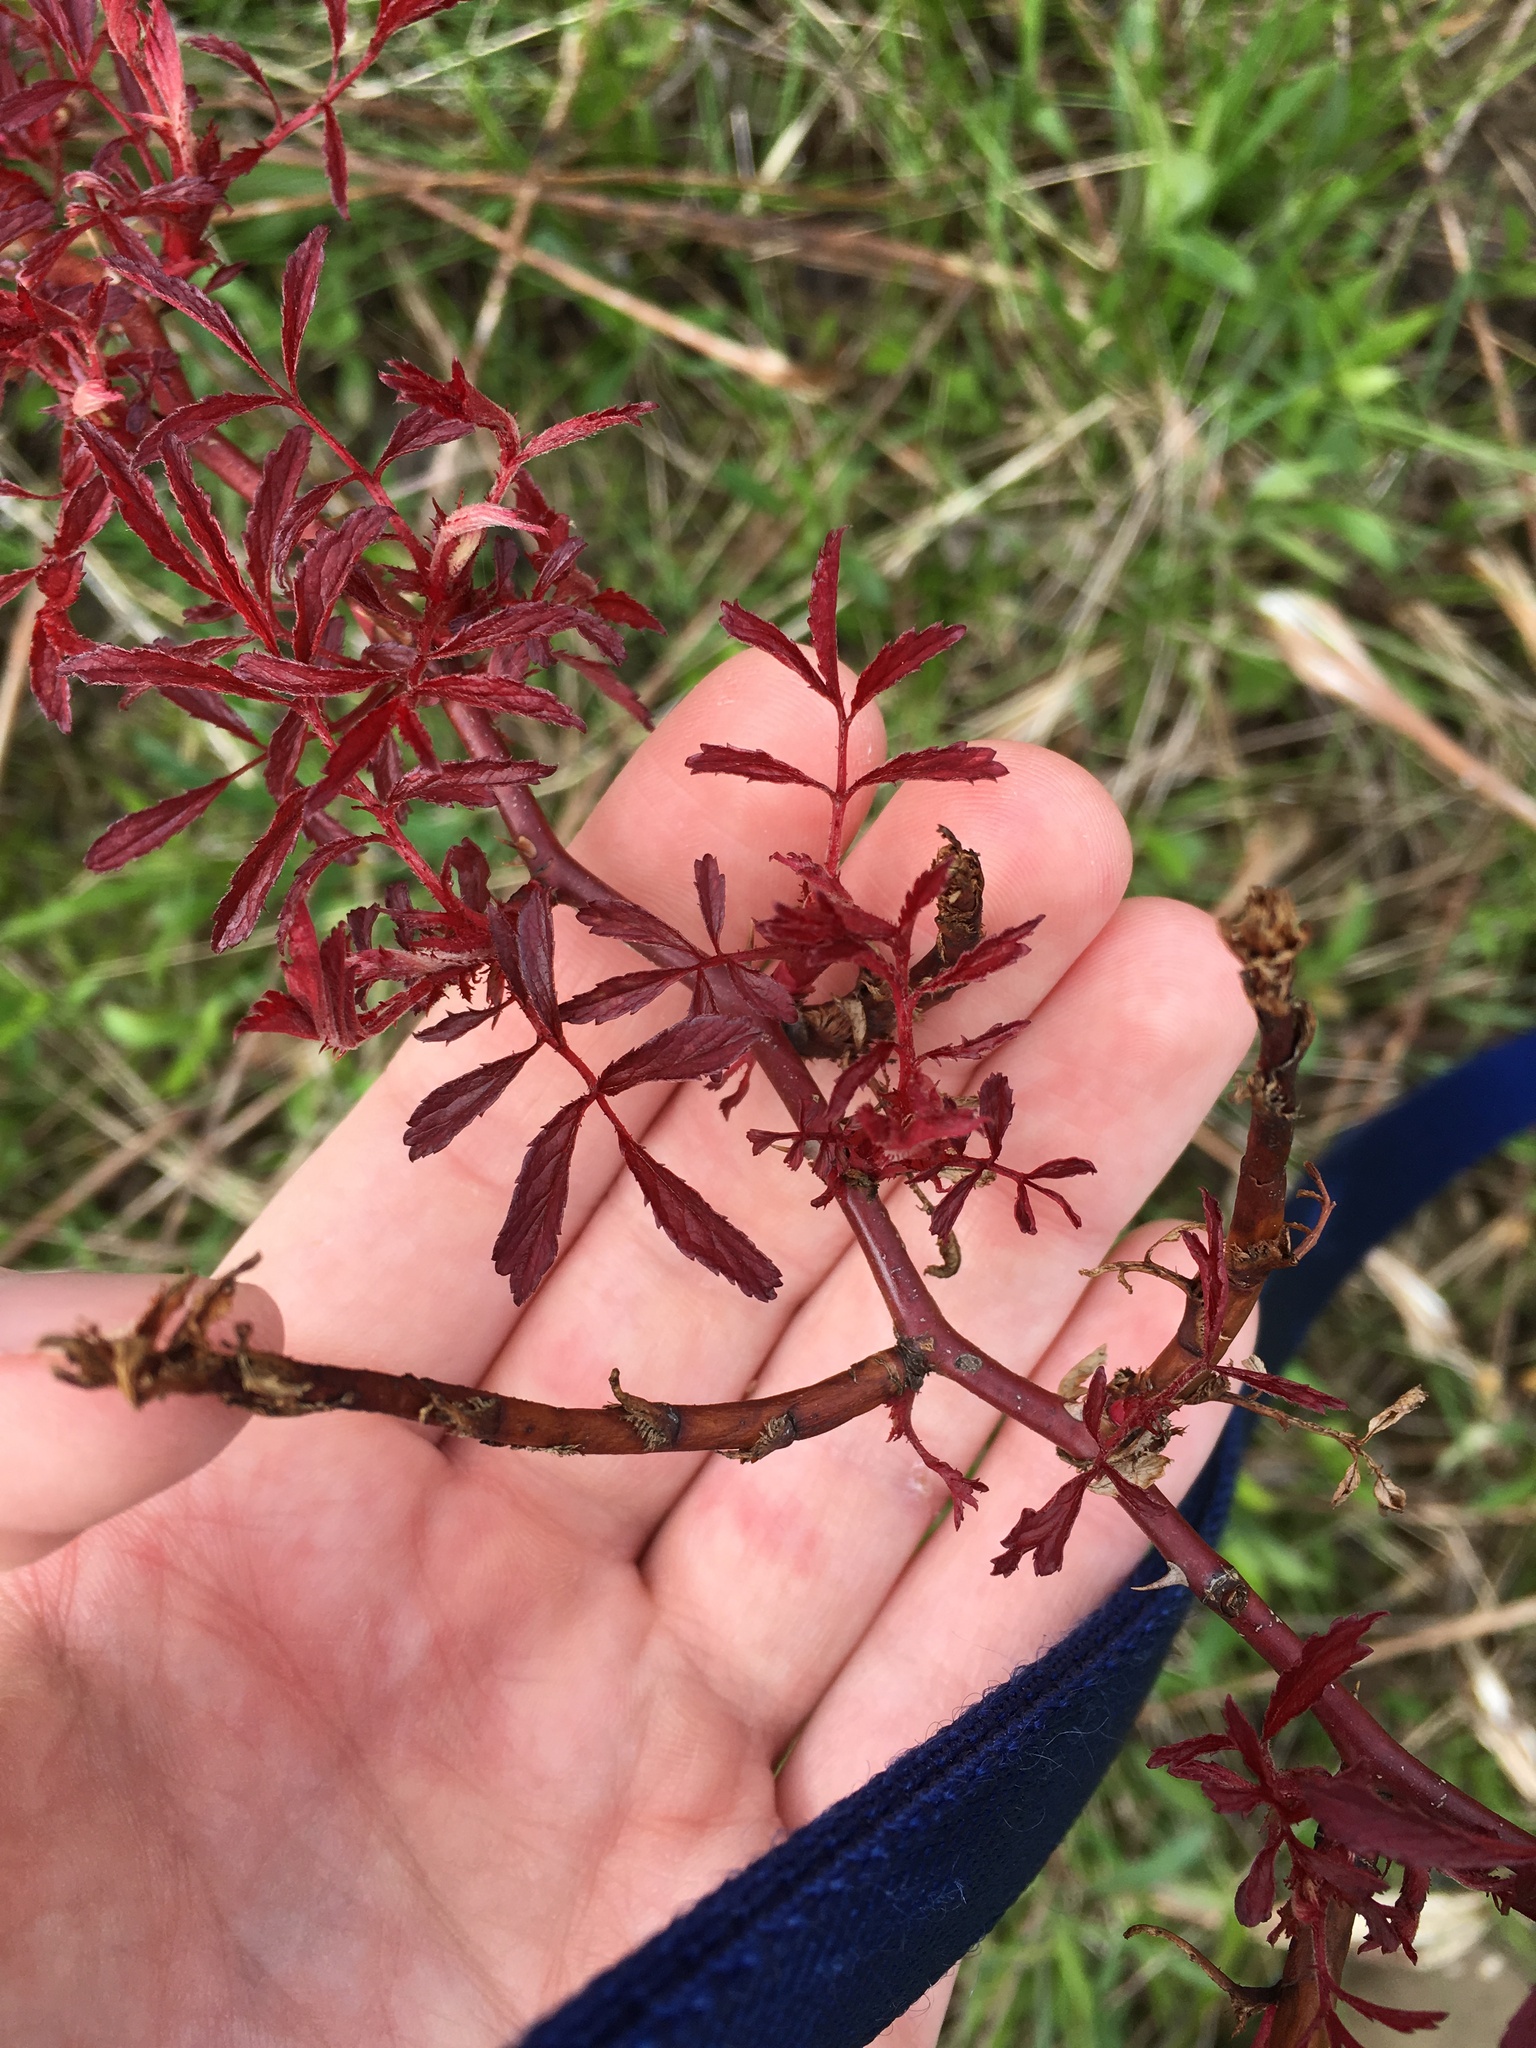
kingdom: Viruses
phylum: Negarnaviricota
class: Ellioviricetes
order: Bunyavirales
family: Fimoviridae
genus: Emaravirus
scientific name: Emaravirus rosae
